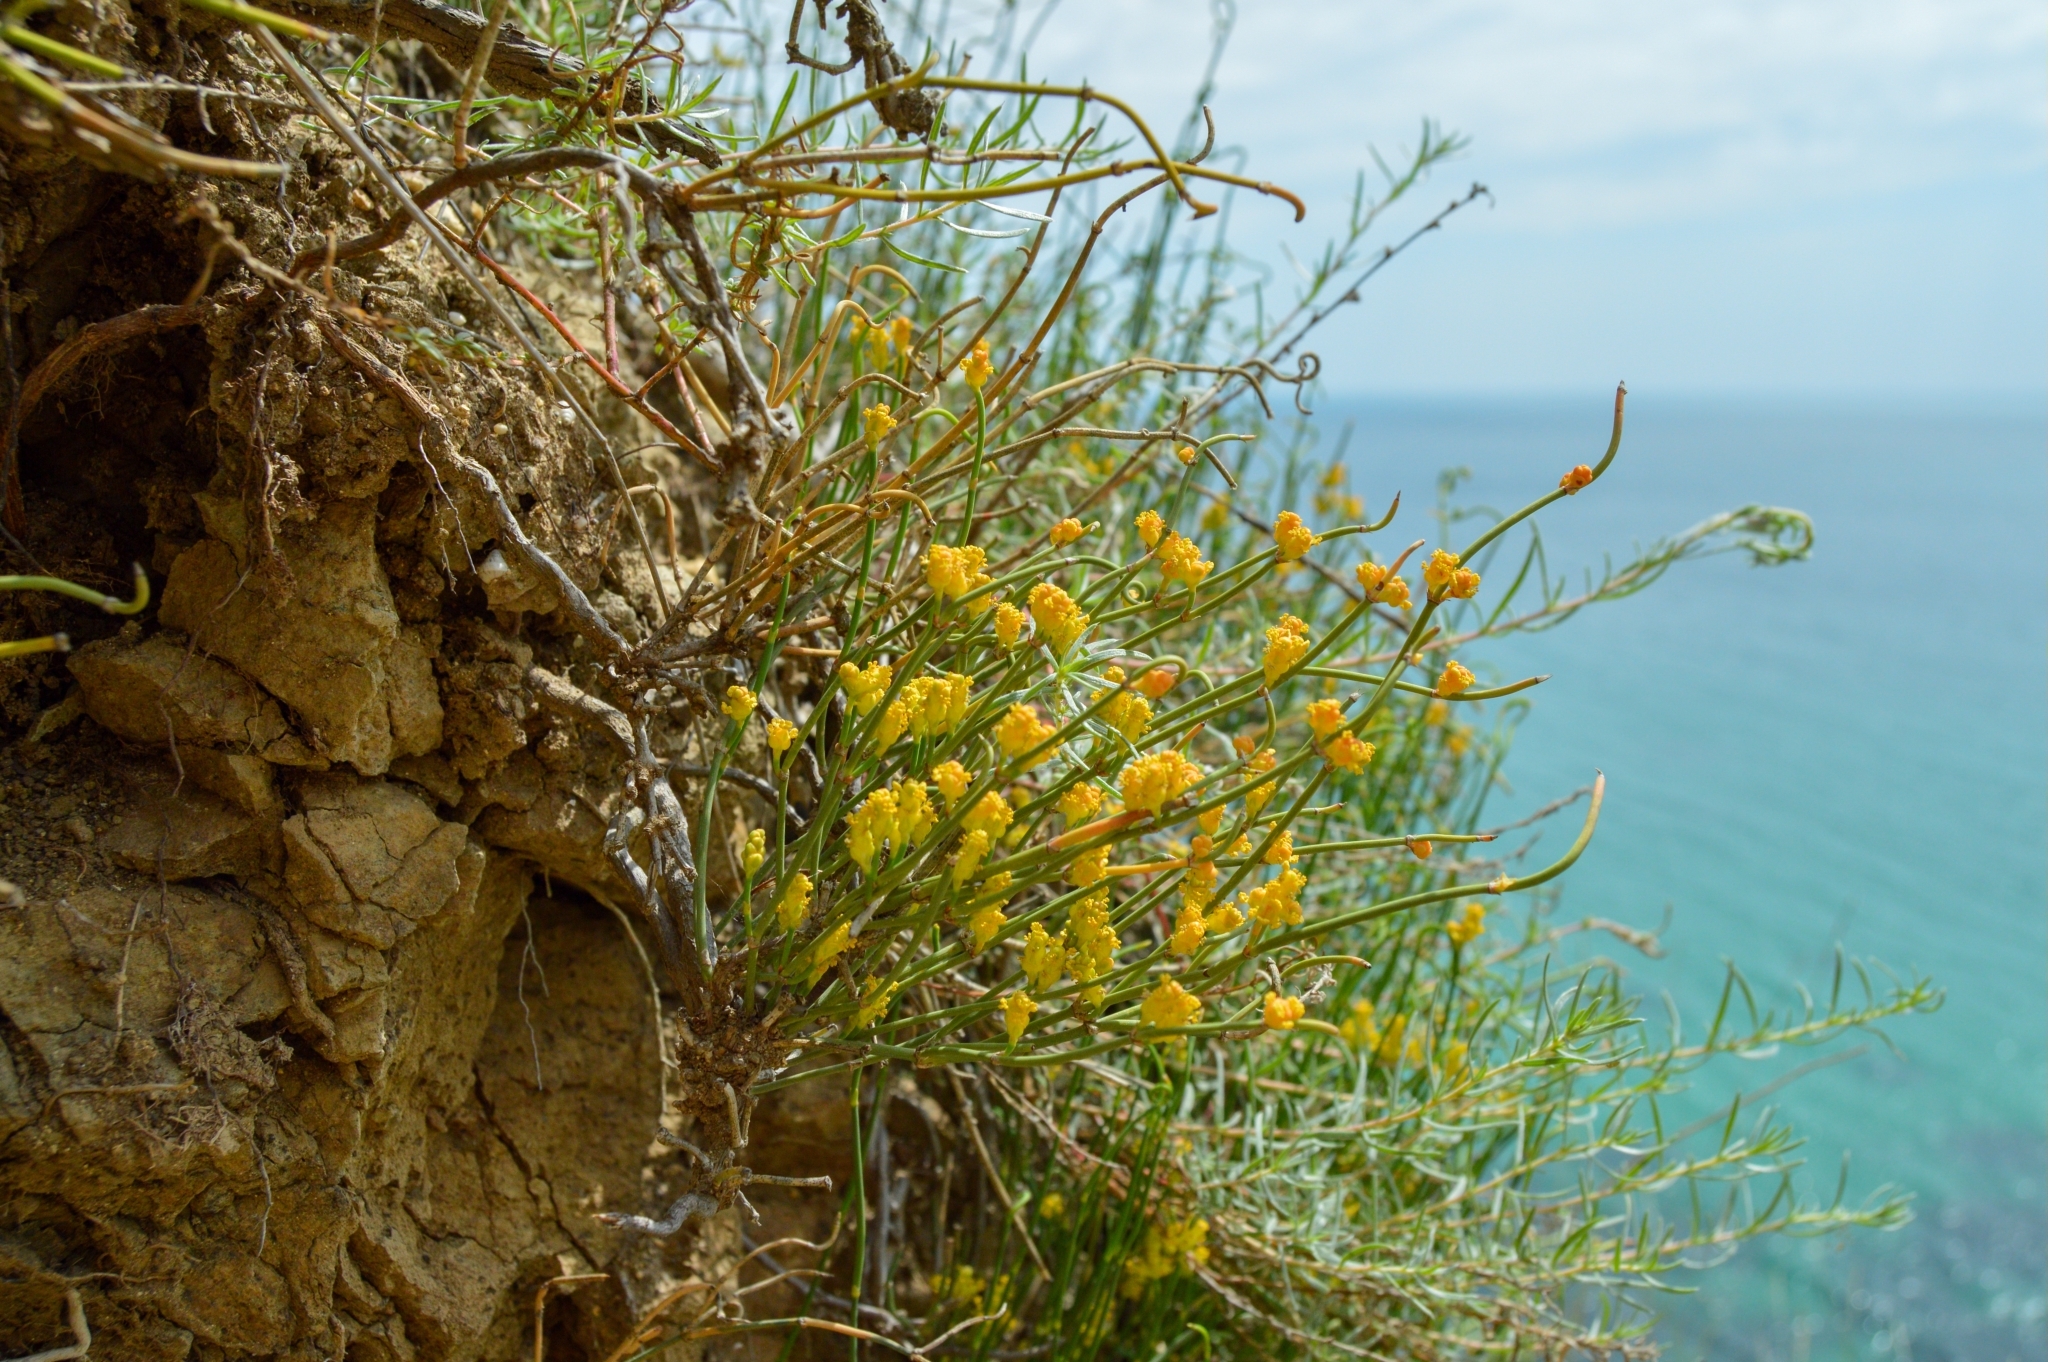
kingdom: Plantae
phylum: Tracheophyta
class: Gnetopsida
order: Ephedrales
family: Ephedraceae
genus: Ephedra
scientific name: Ephedra distachya
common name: Sea grape
